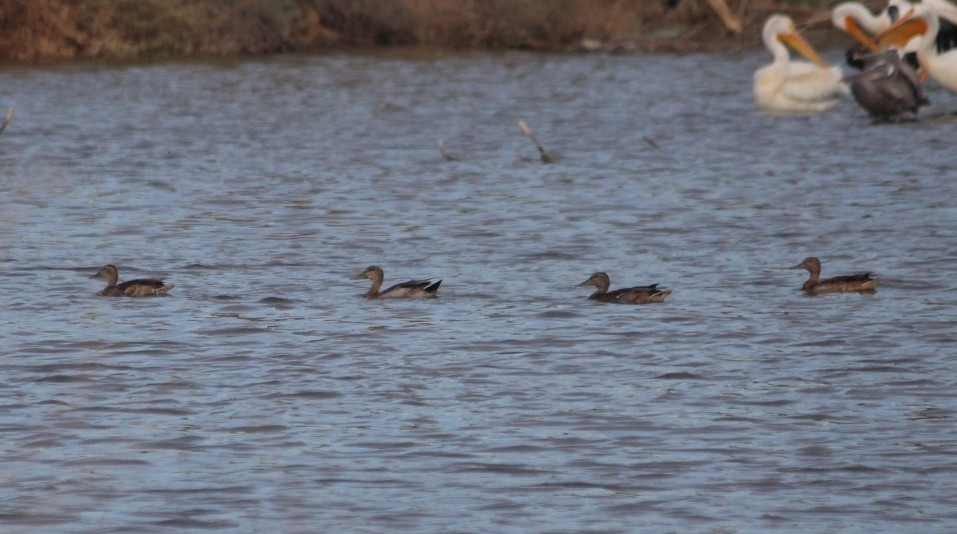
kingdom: Animalia
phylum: Chordata
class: Aves
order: Anseriformes
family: Anatidae
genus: Anas
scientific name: Anas platyrhynchos
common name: Mallard
